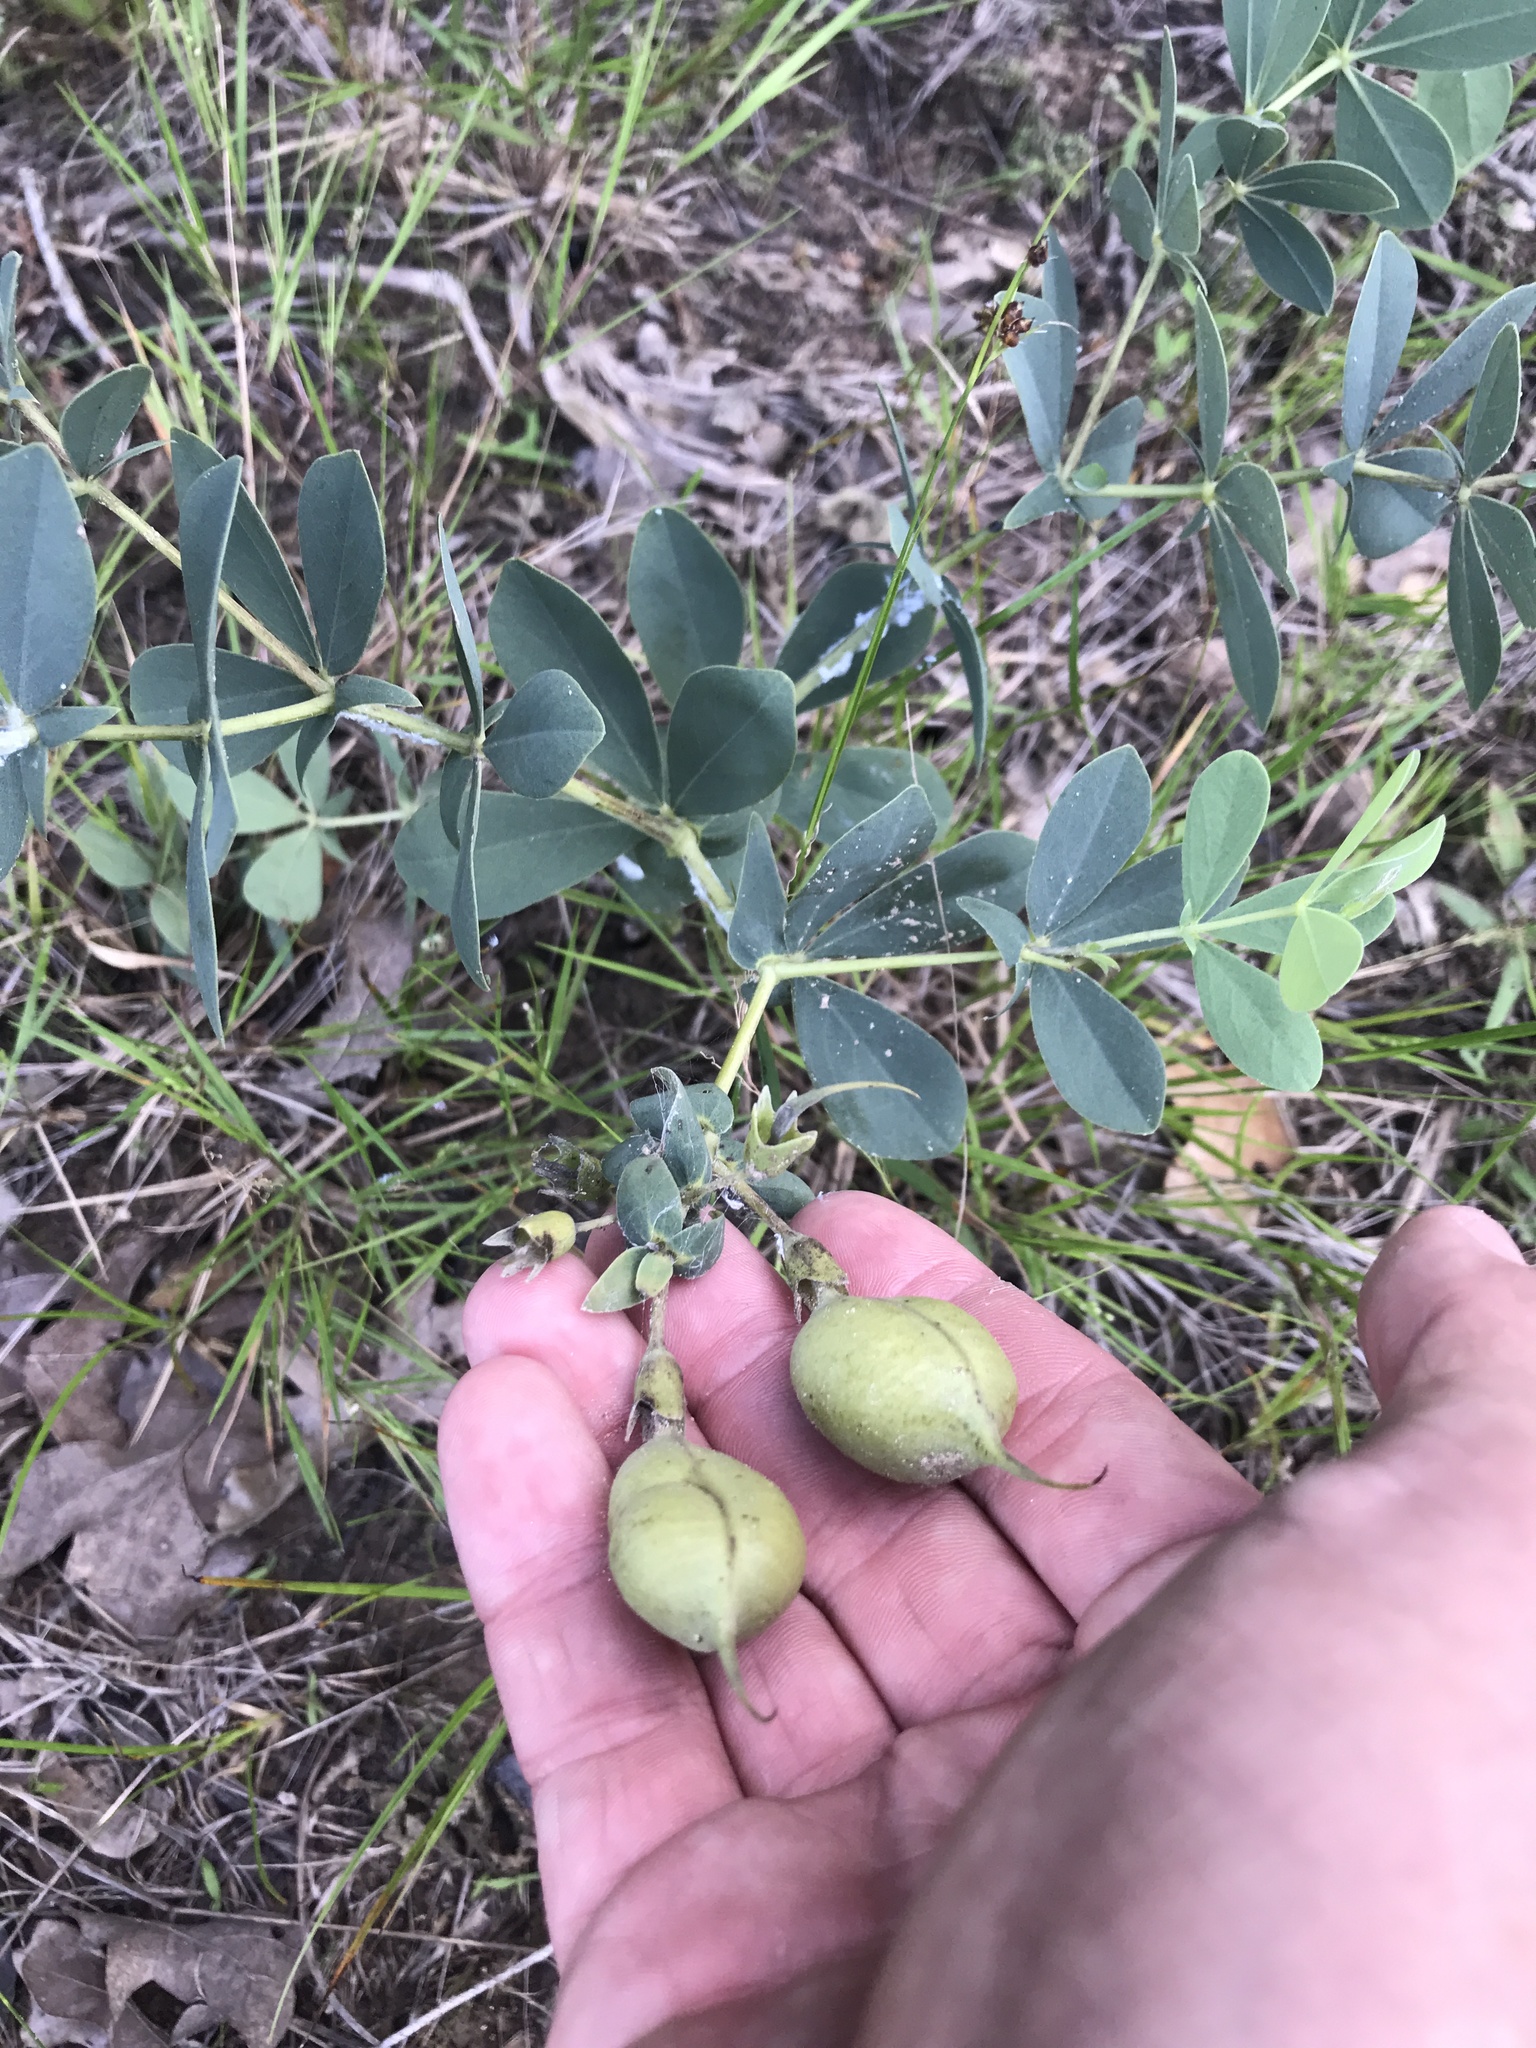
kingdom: Plantae
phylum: Tracheophyta
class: Magnoliopsida
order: Fabales
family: Fabaceae
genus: Baptisia
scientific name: Baptisia bracteata
